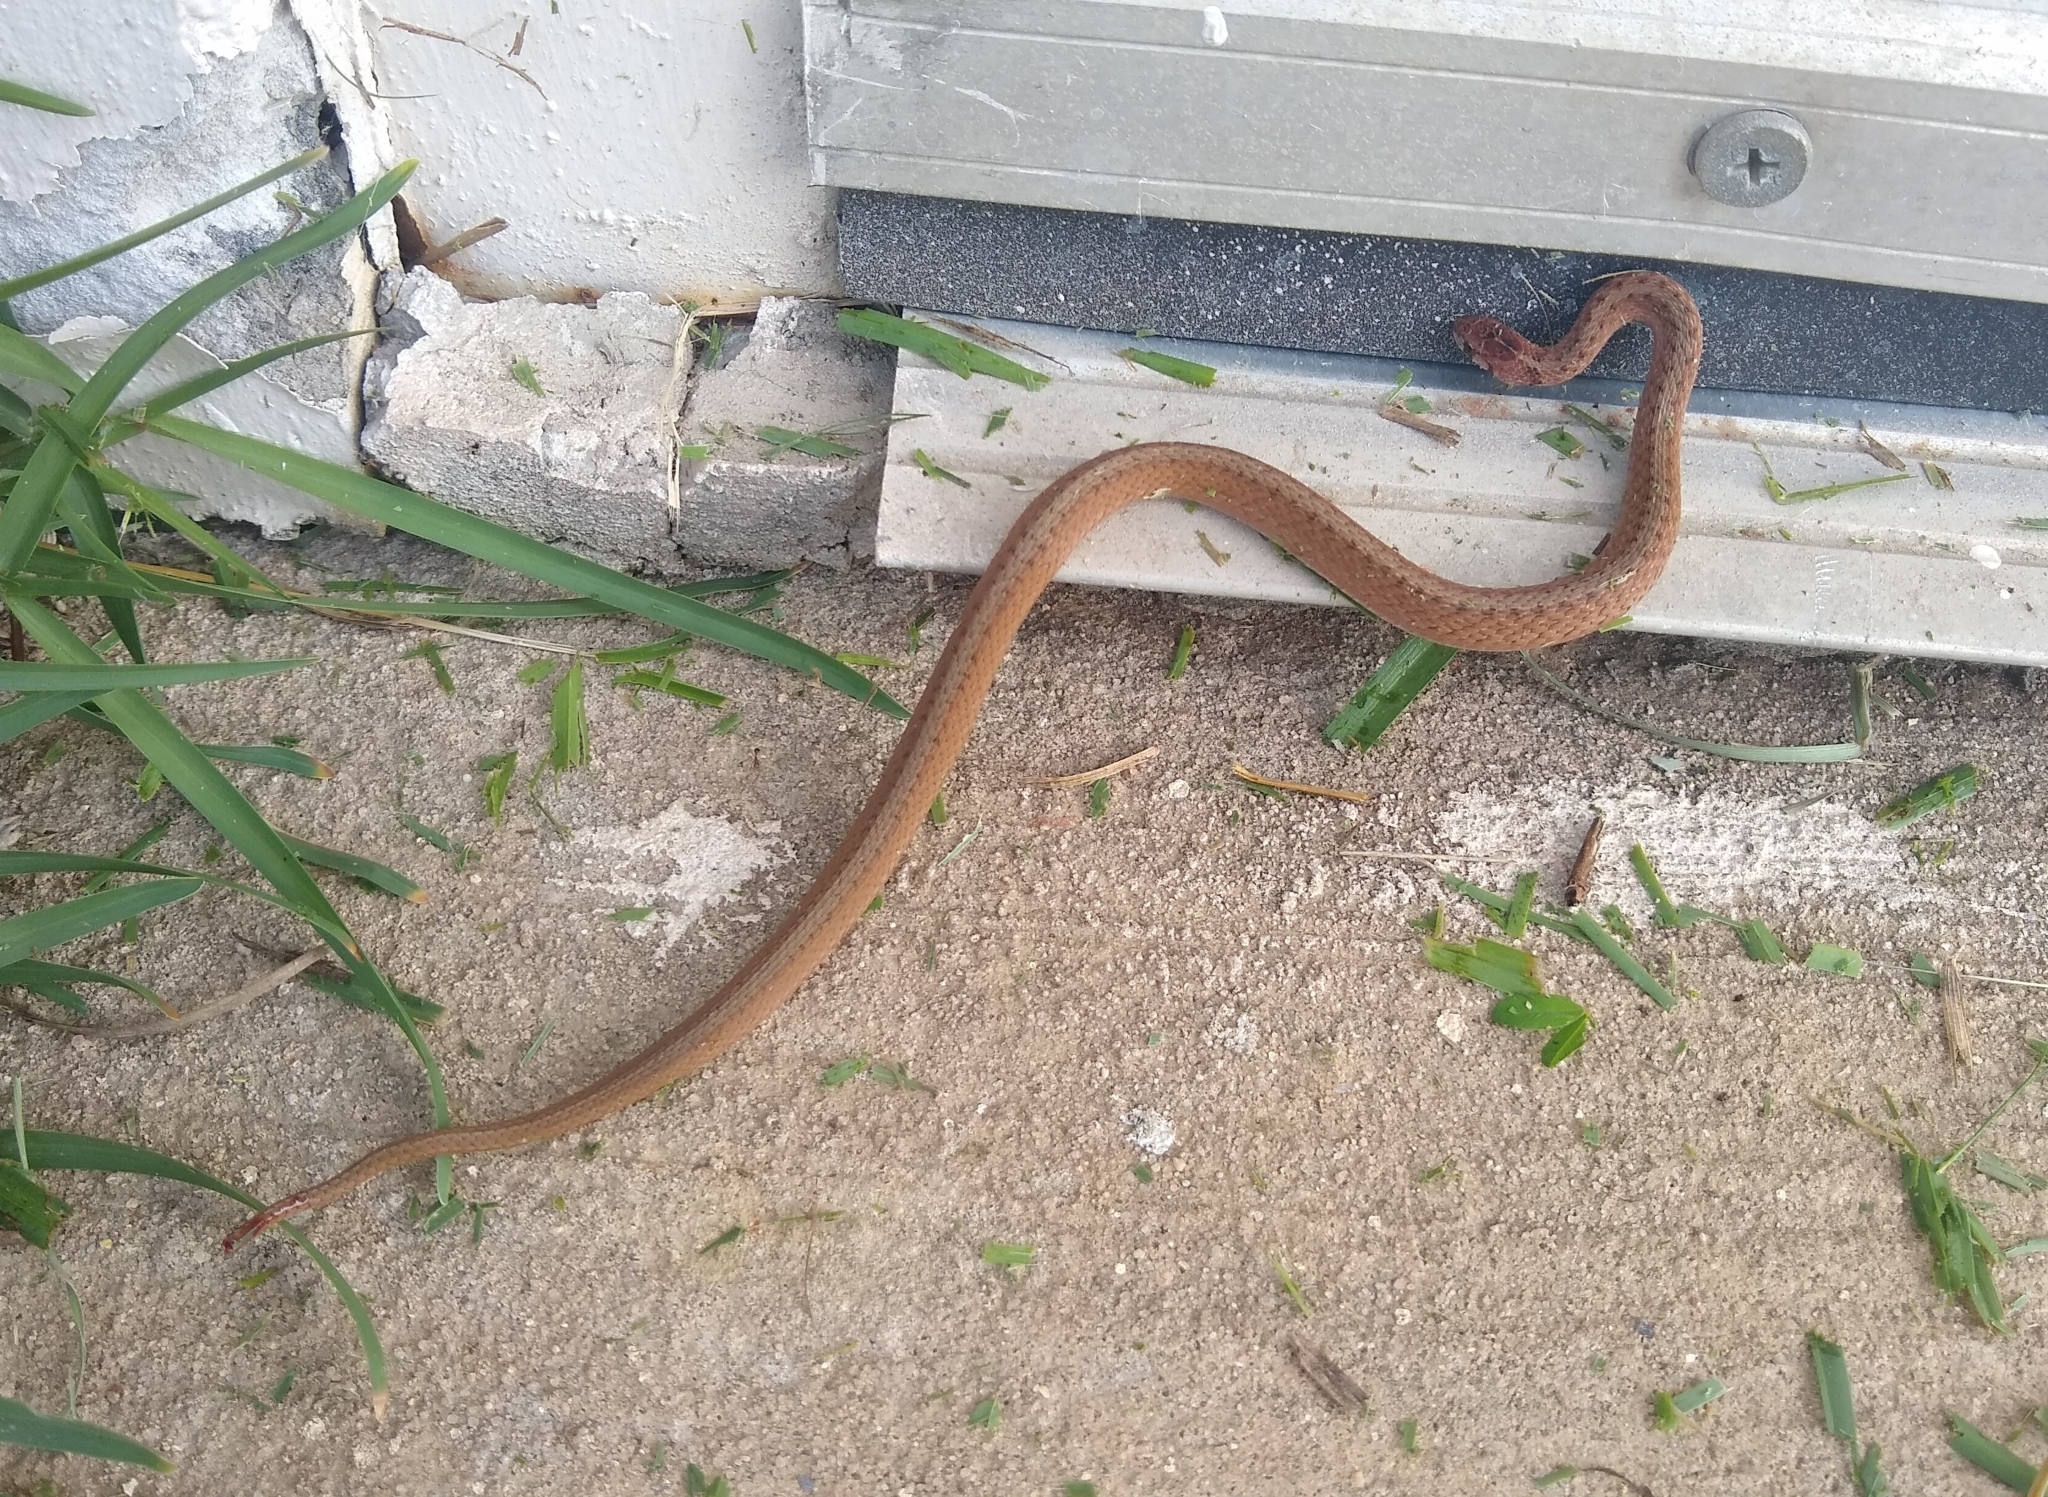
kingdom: Animalia
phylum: Chordata
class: Squamata
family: Colubridae
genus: Storeria
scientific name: Storeria dekayi
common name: (dekay’s) brown snake
